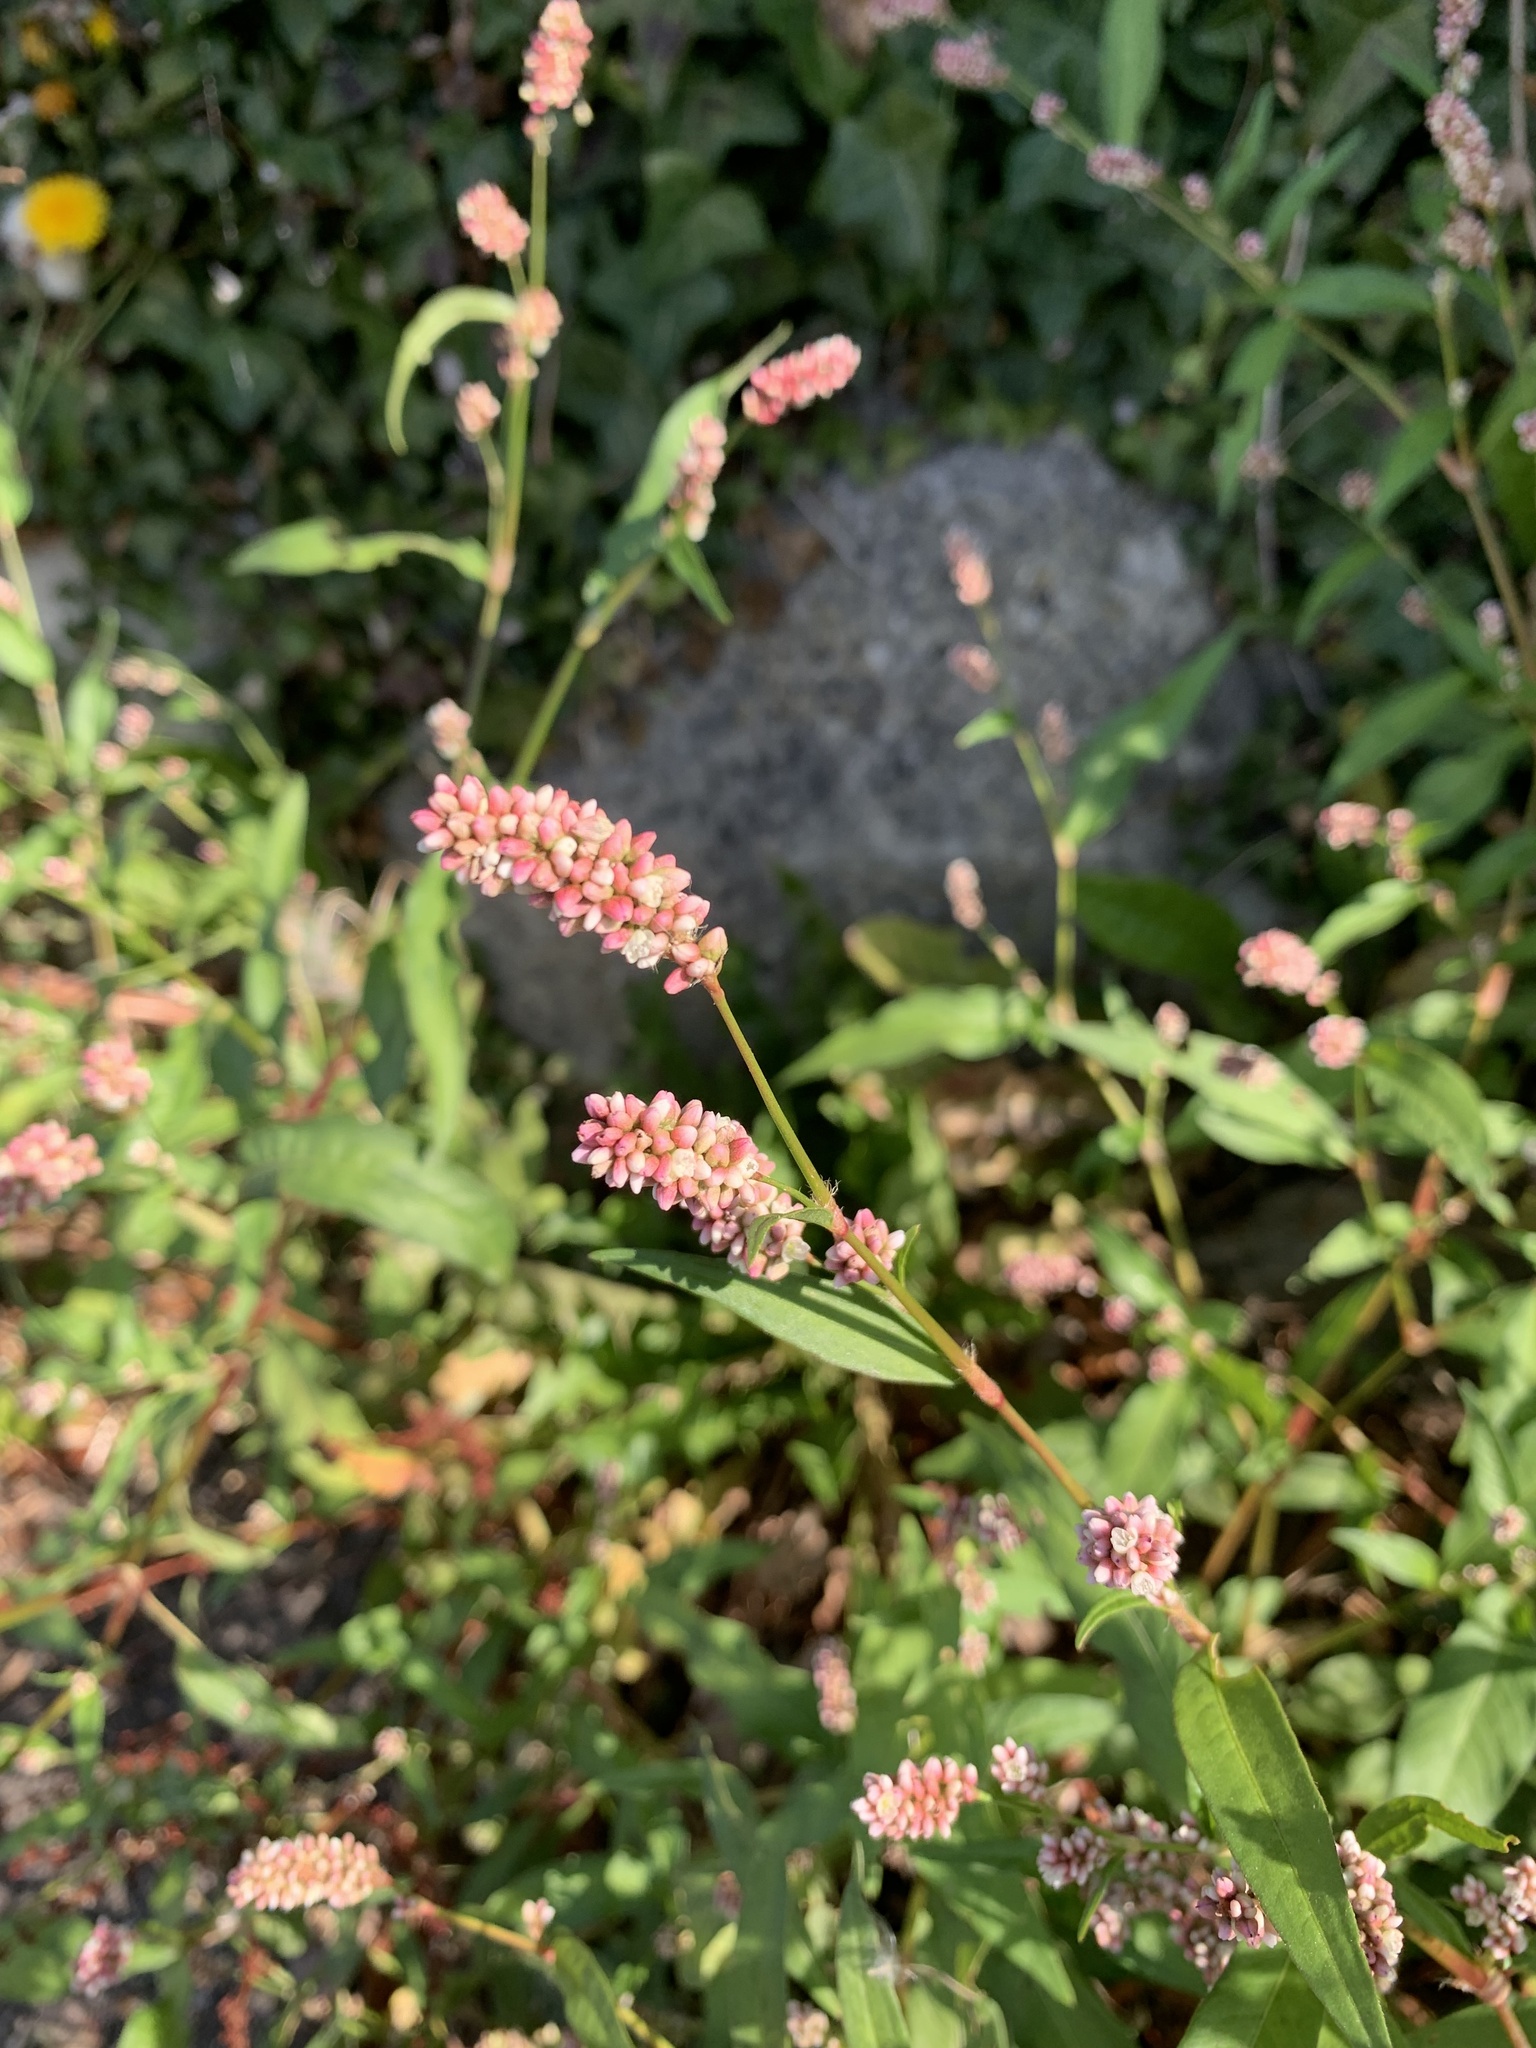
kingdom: Plantae
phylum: Tracheophyta
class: Magnoliopsida
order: Caryophyllales
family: Polygonaceae
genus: Persicaria
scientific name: Persicaria maculosa
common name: Redshank
